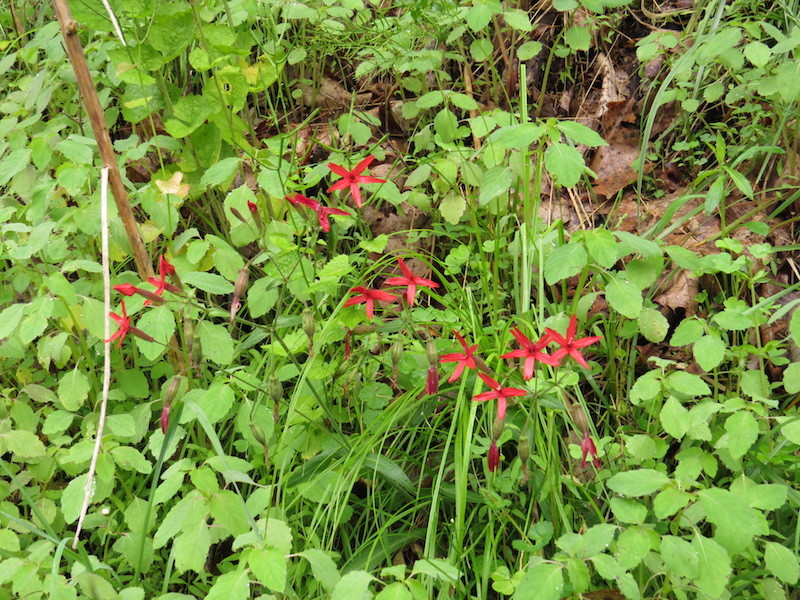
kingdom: Plantae
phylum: Tracheophyta
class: Magnoliopsida
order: Caryophyllales
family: Caryophyllaceae
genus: Silene
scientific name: Silene virginica
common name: Fire-pink
